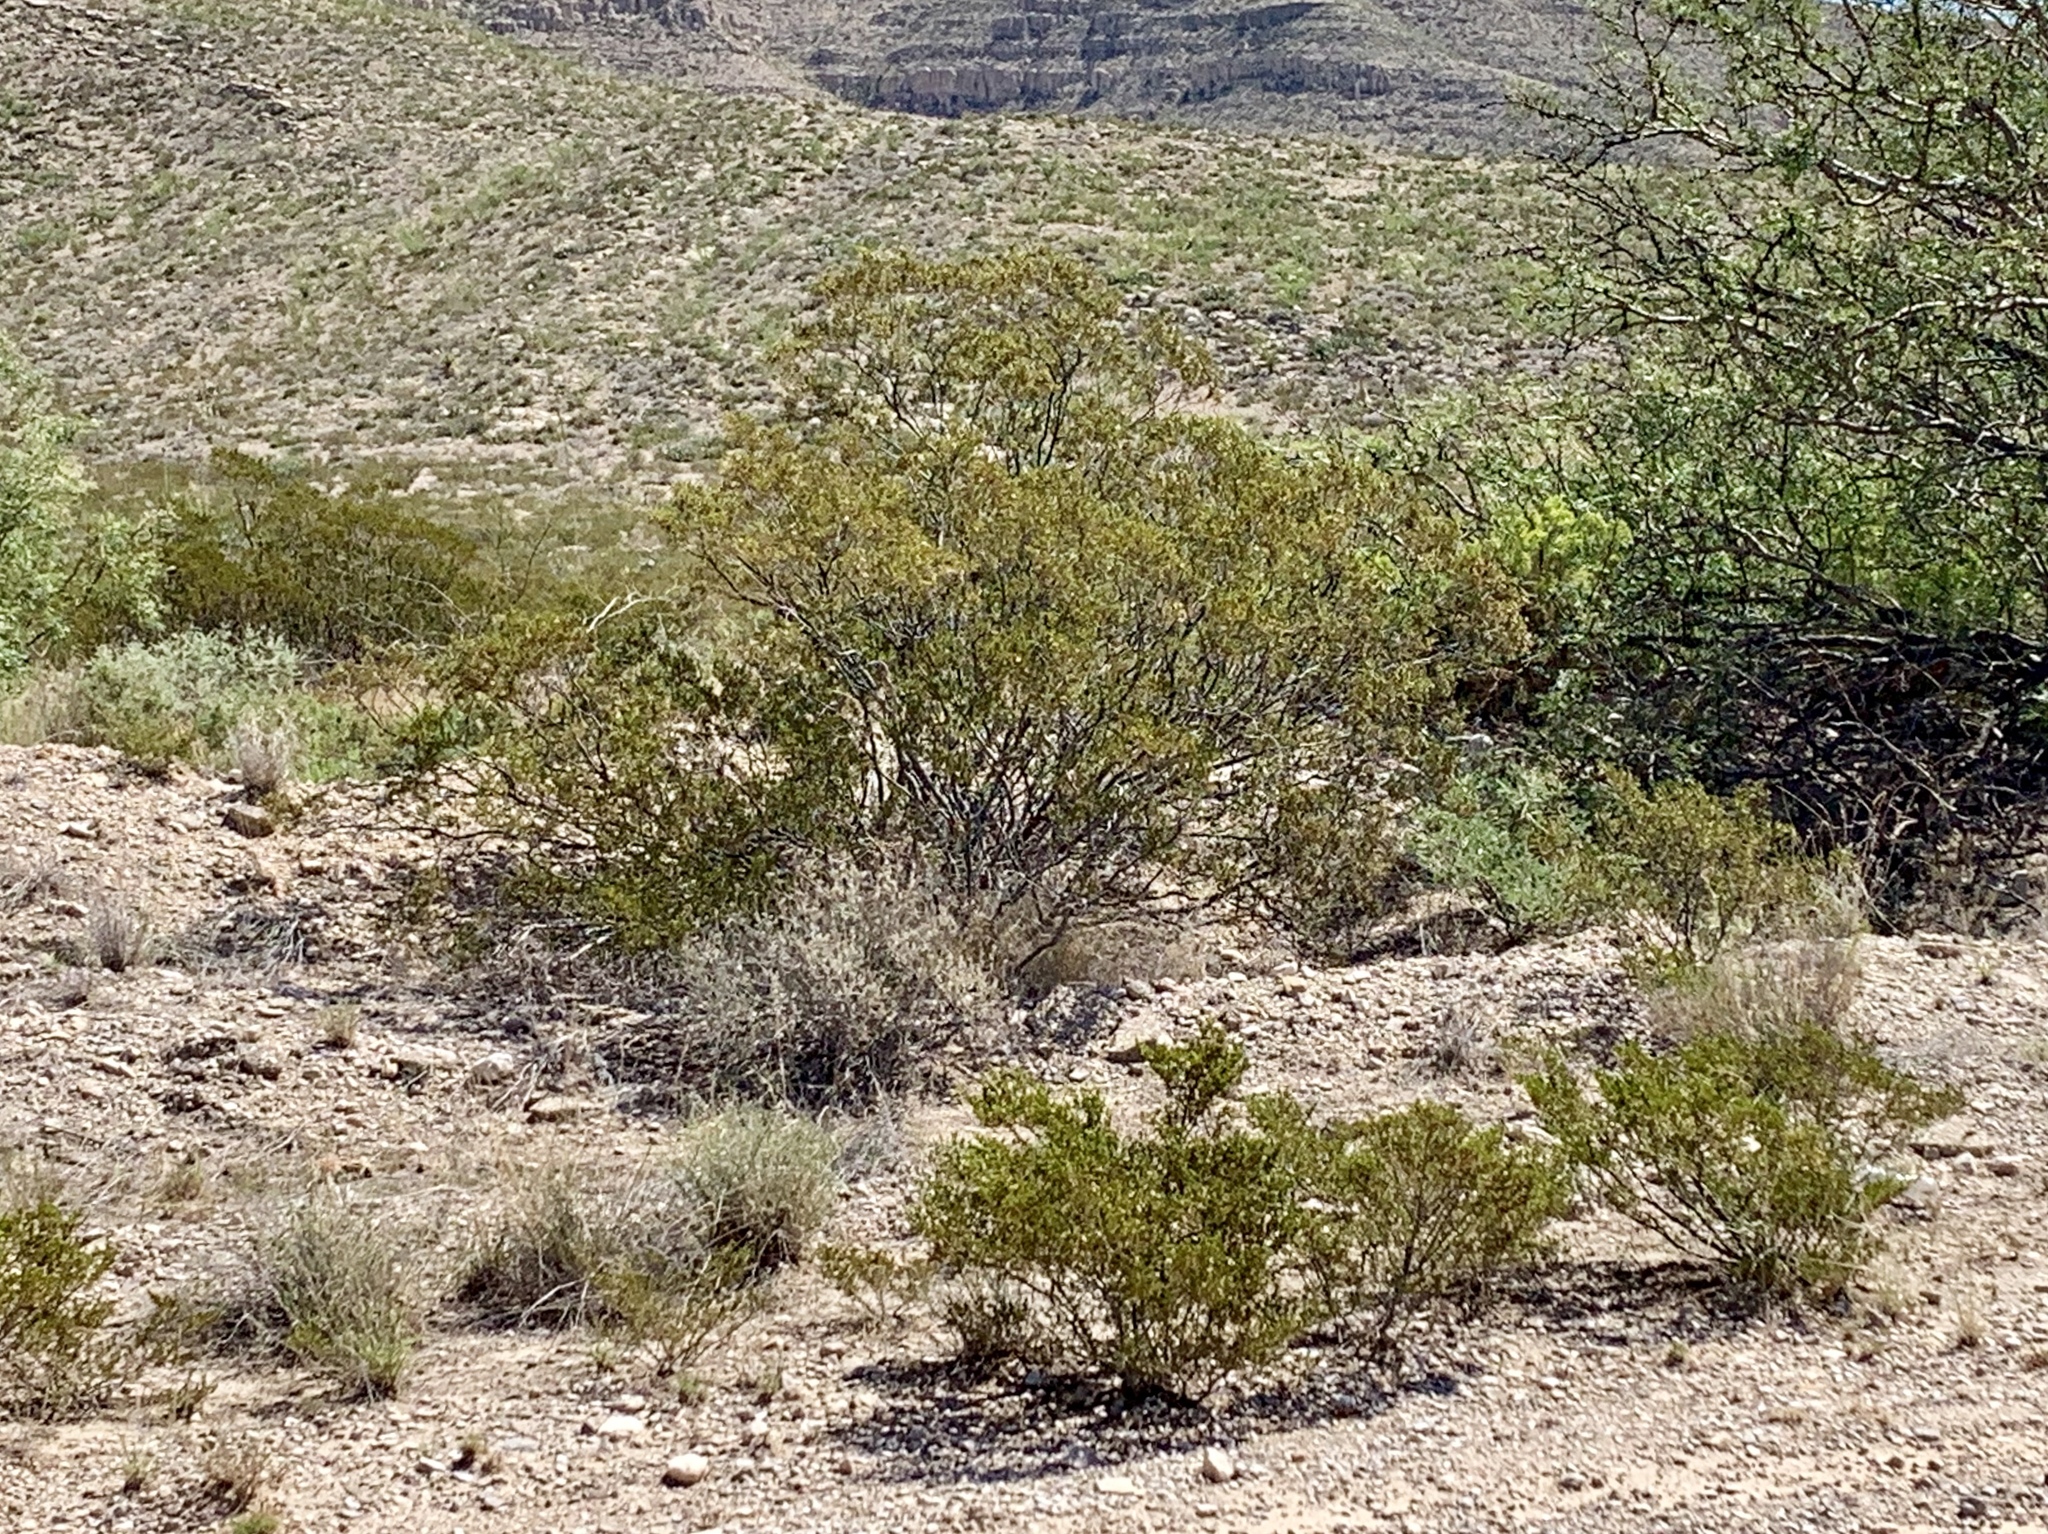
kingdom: Plantae
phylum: Tracheophyta
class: Magnoliopsida
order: Zygophyllales
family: Zygophyllaceae
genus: Larrea
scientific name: Larrea tridentata
